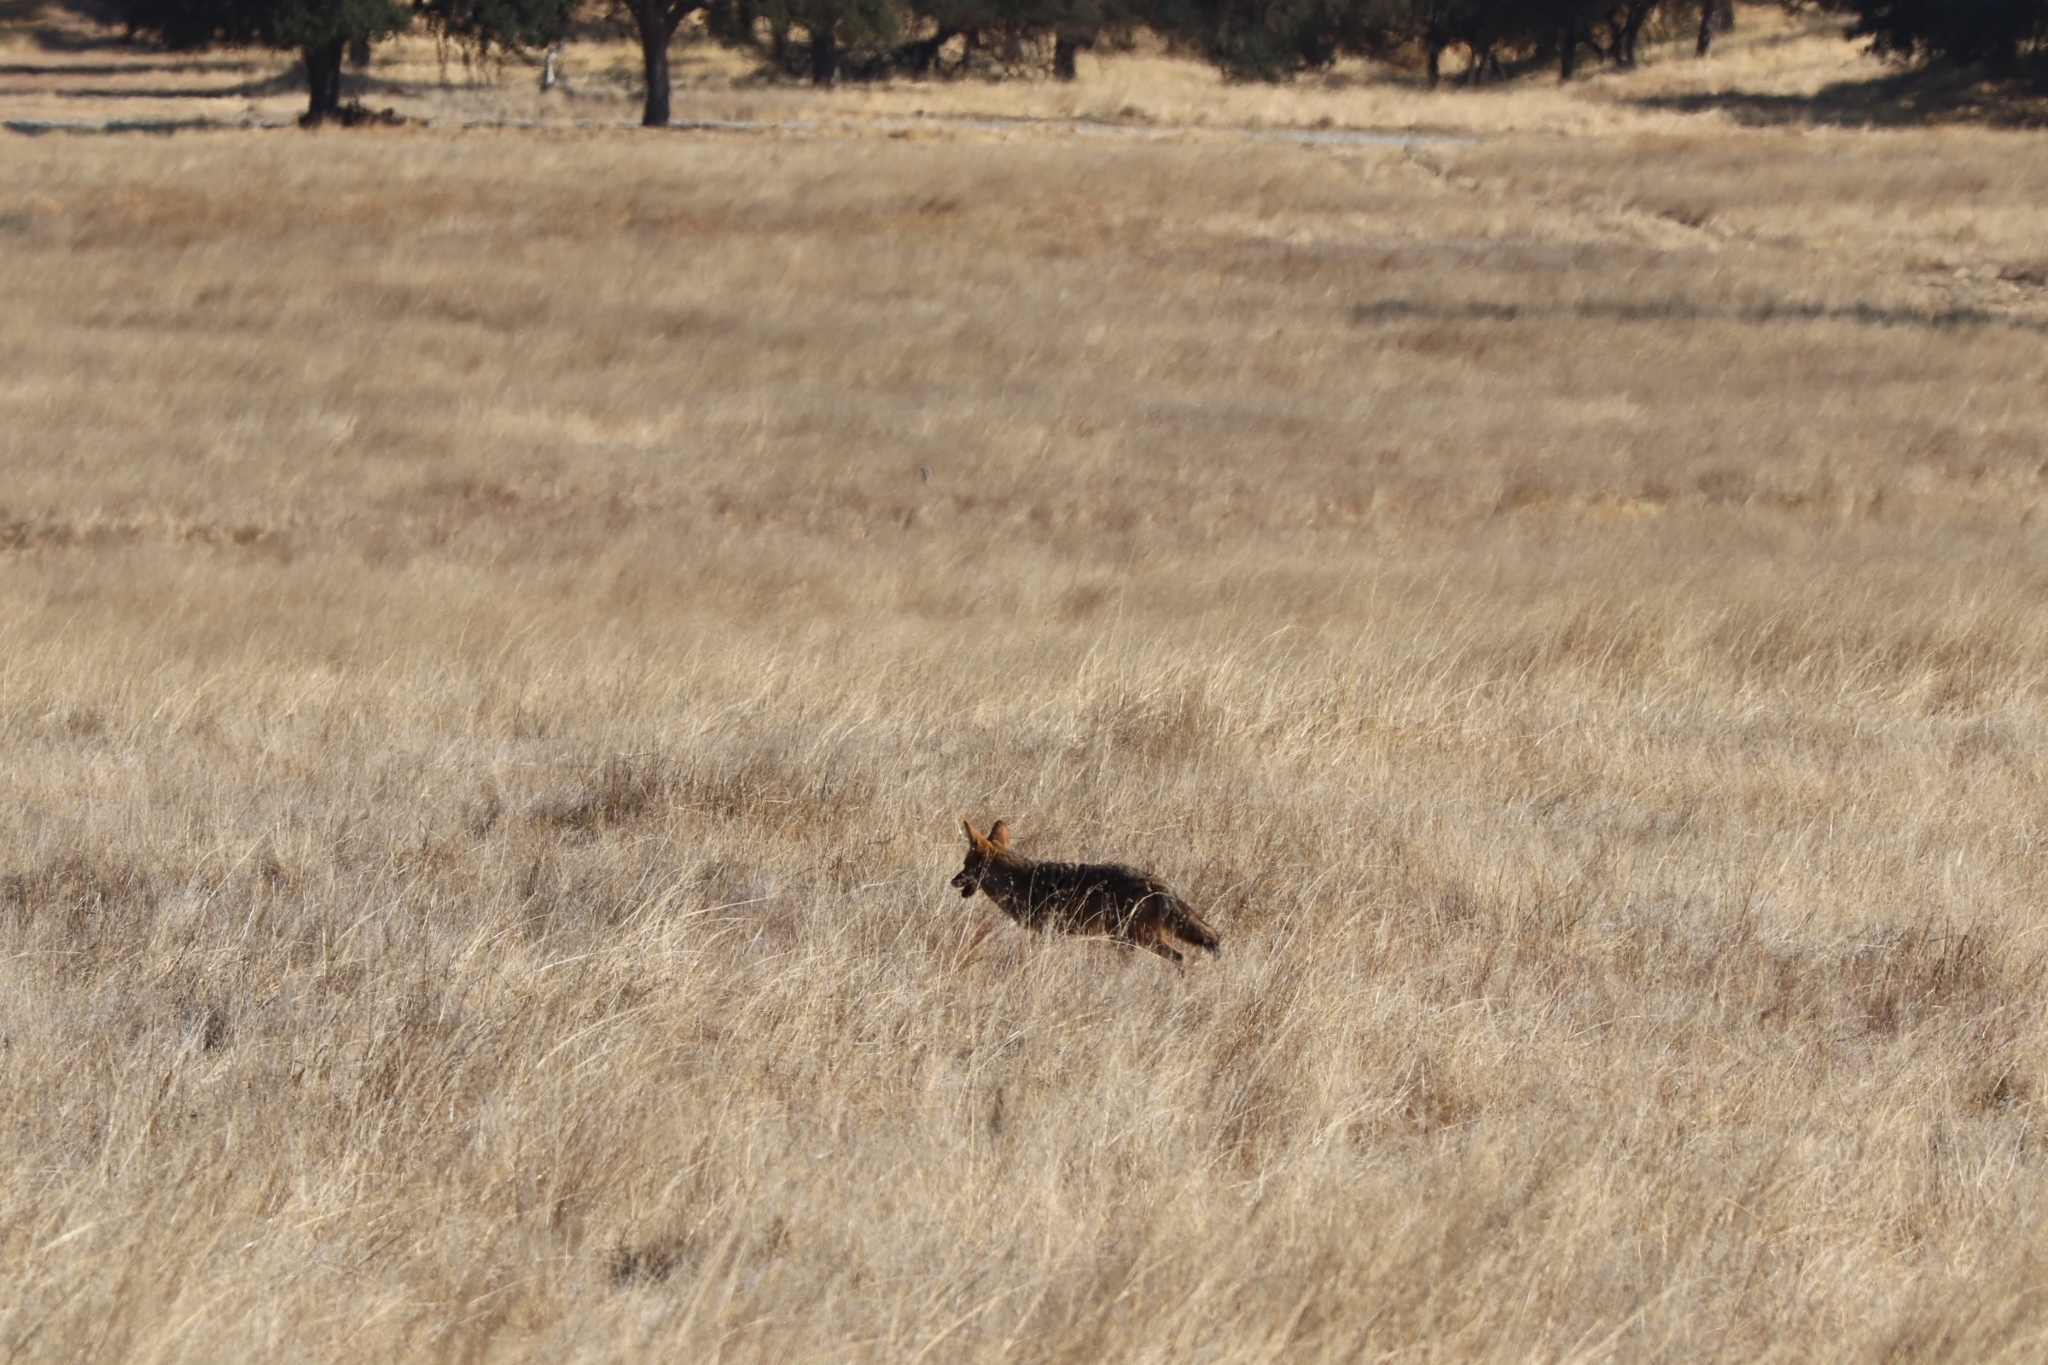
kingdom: Animalia
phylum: Chordata
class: Mammalia
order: Carnivora
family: Canidae
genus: Canis
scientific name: Canis latrans
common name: Coyote
